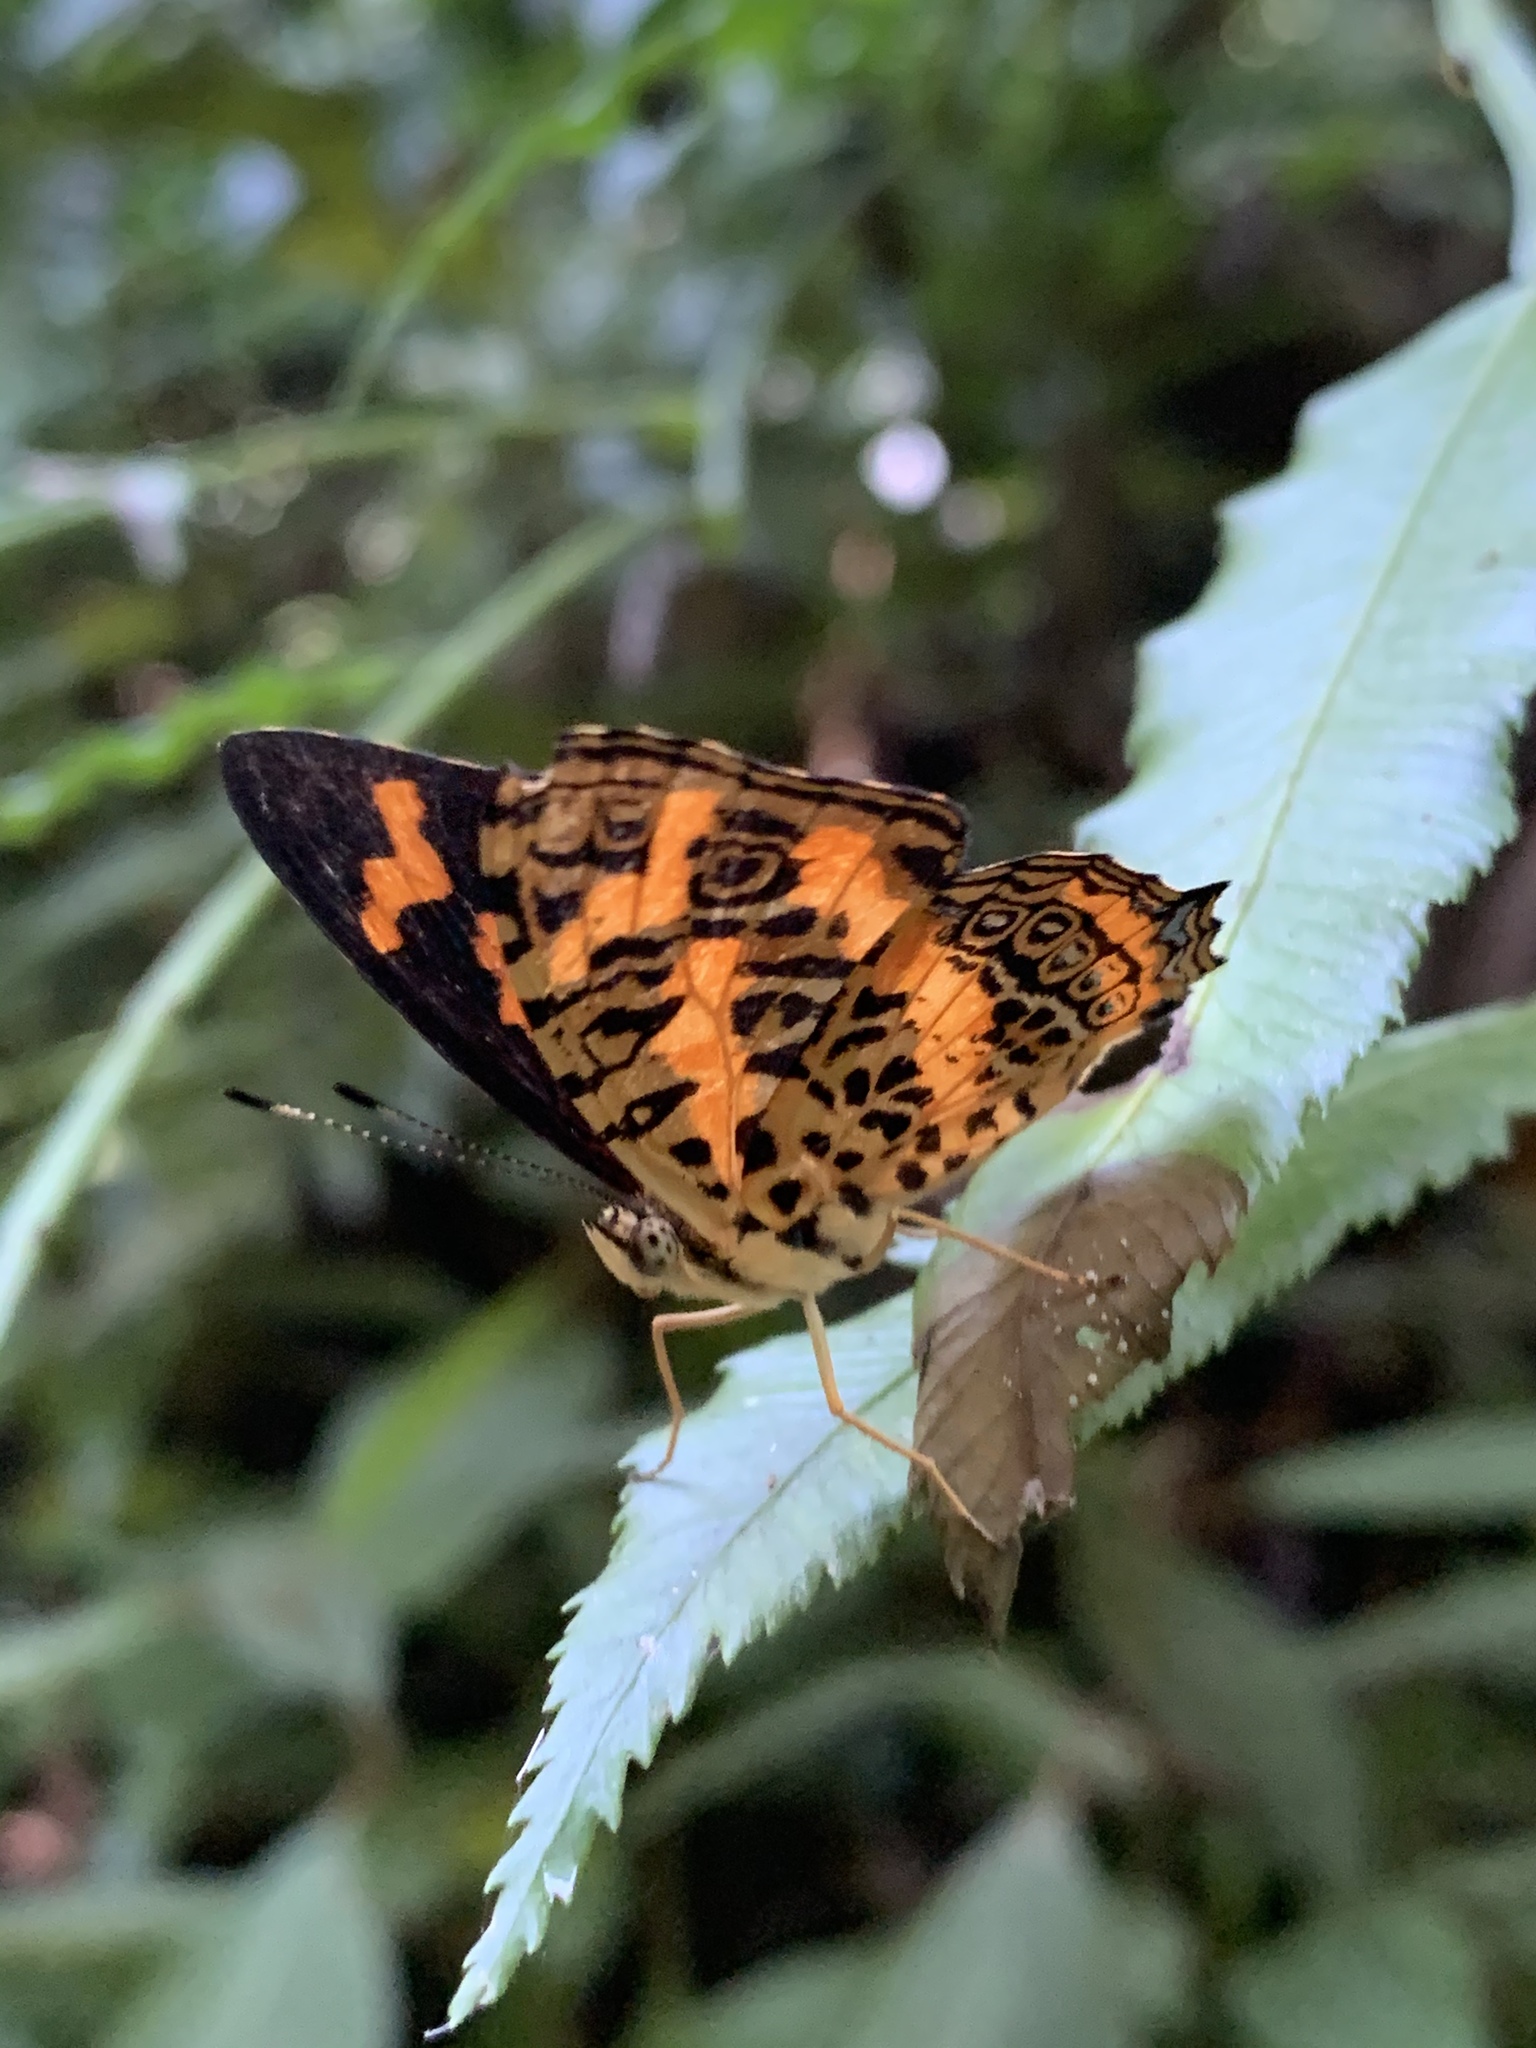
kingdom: Animalia
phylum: Arthropoda
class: Insecta
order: Lepidoptera
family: Nymphalidae
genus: Symbrenthia
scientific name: Symbrenthia brabira
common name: Yellow jester
